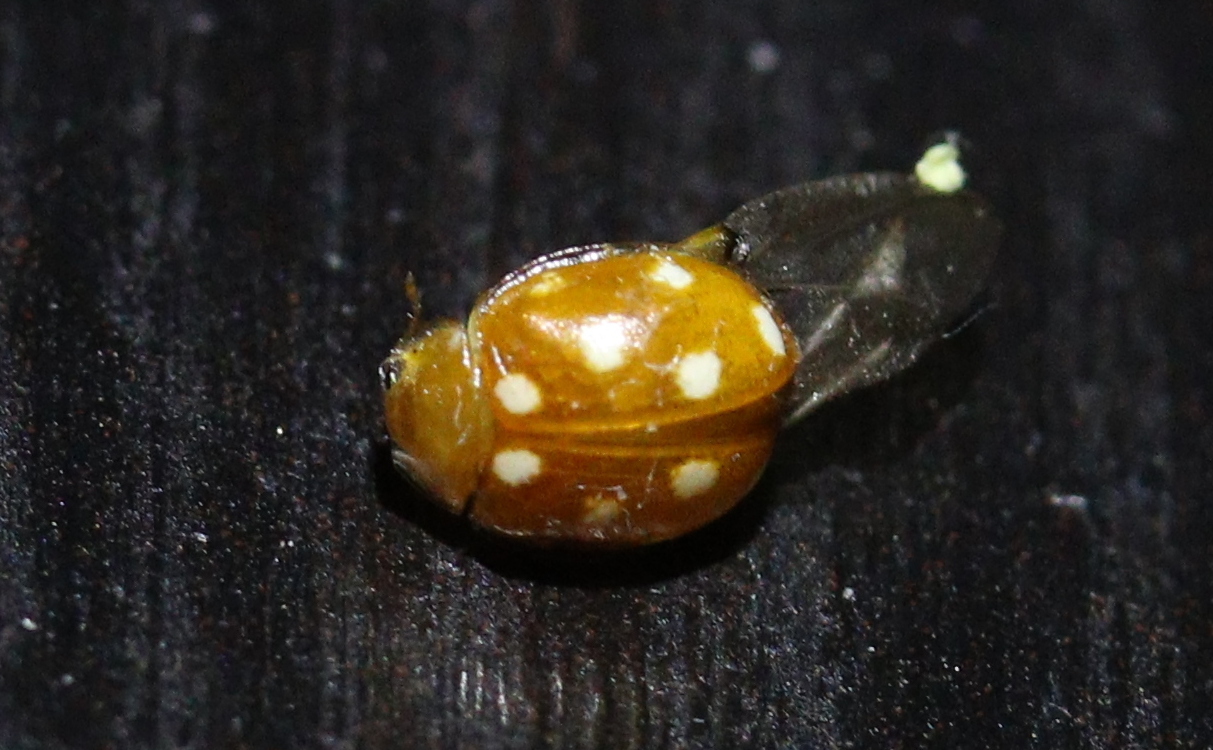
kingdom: Animalia
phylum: Arthropoda
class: Insecta
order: Coleoptera
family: Coccinellidae
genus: Vibidia
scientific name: Vibidia duodecimguttata
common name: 12-spot ladybird
